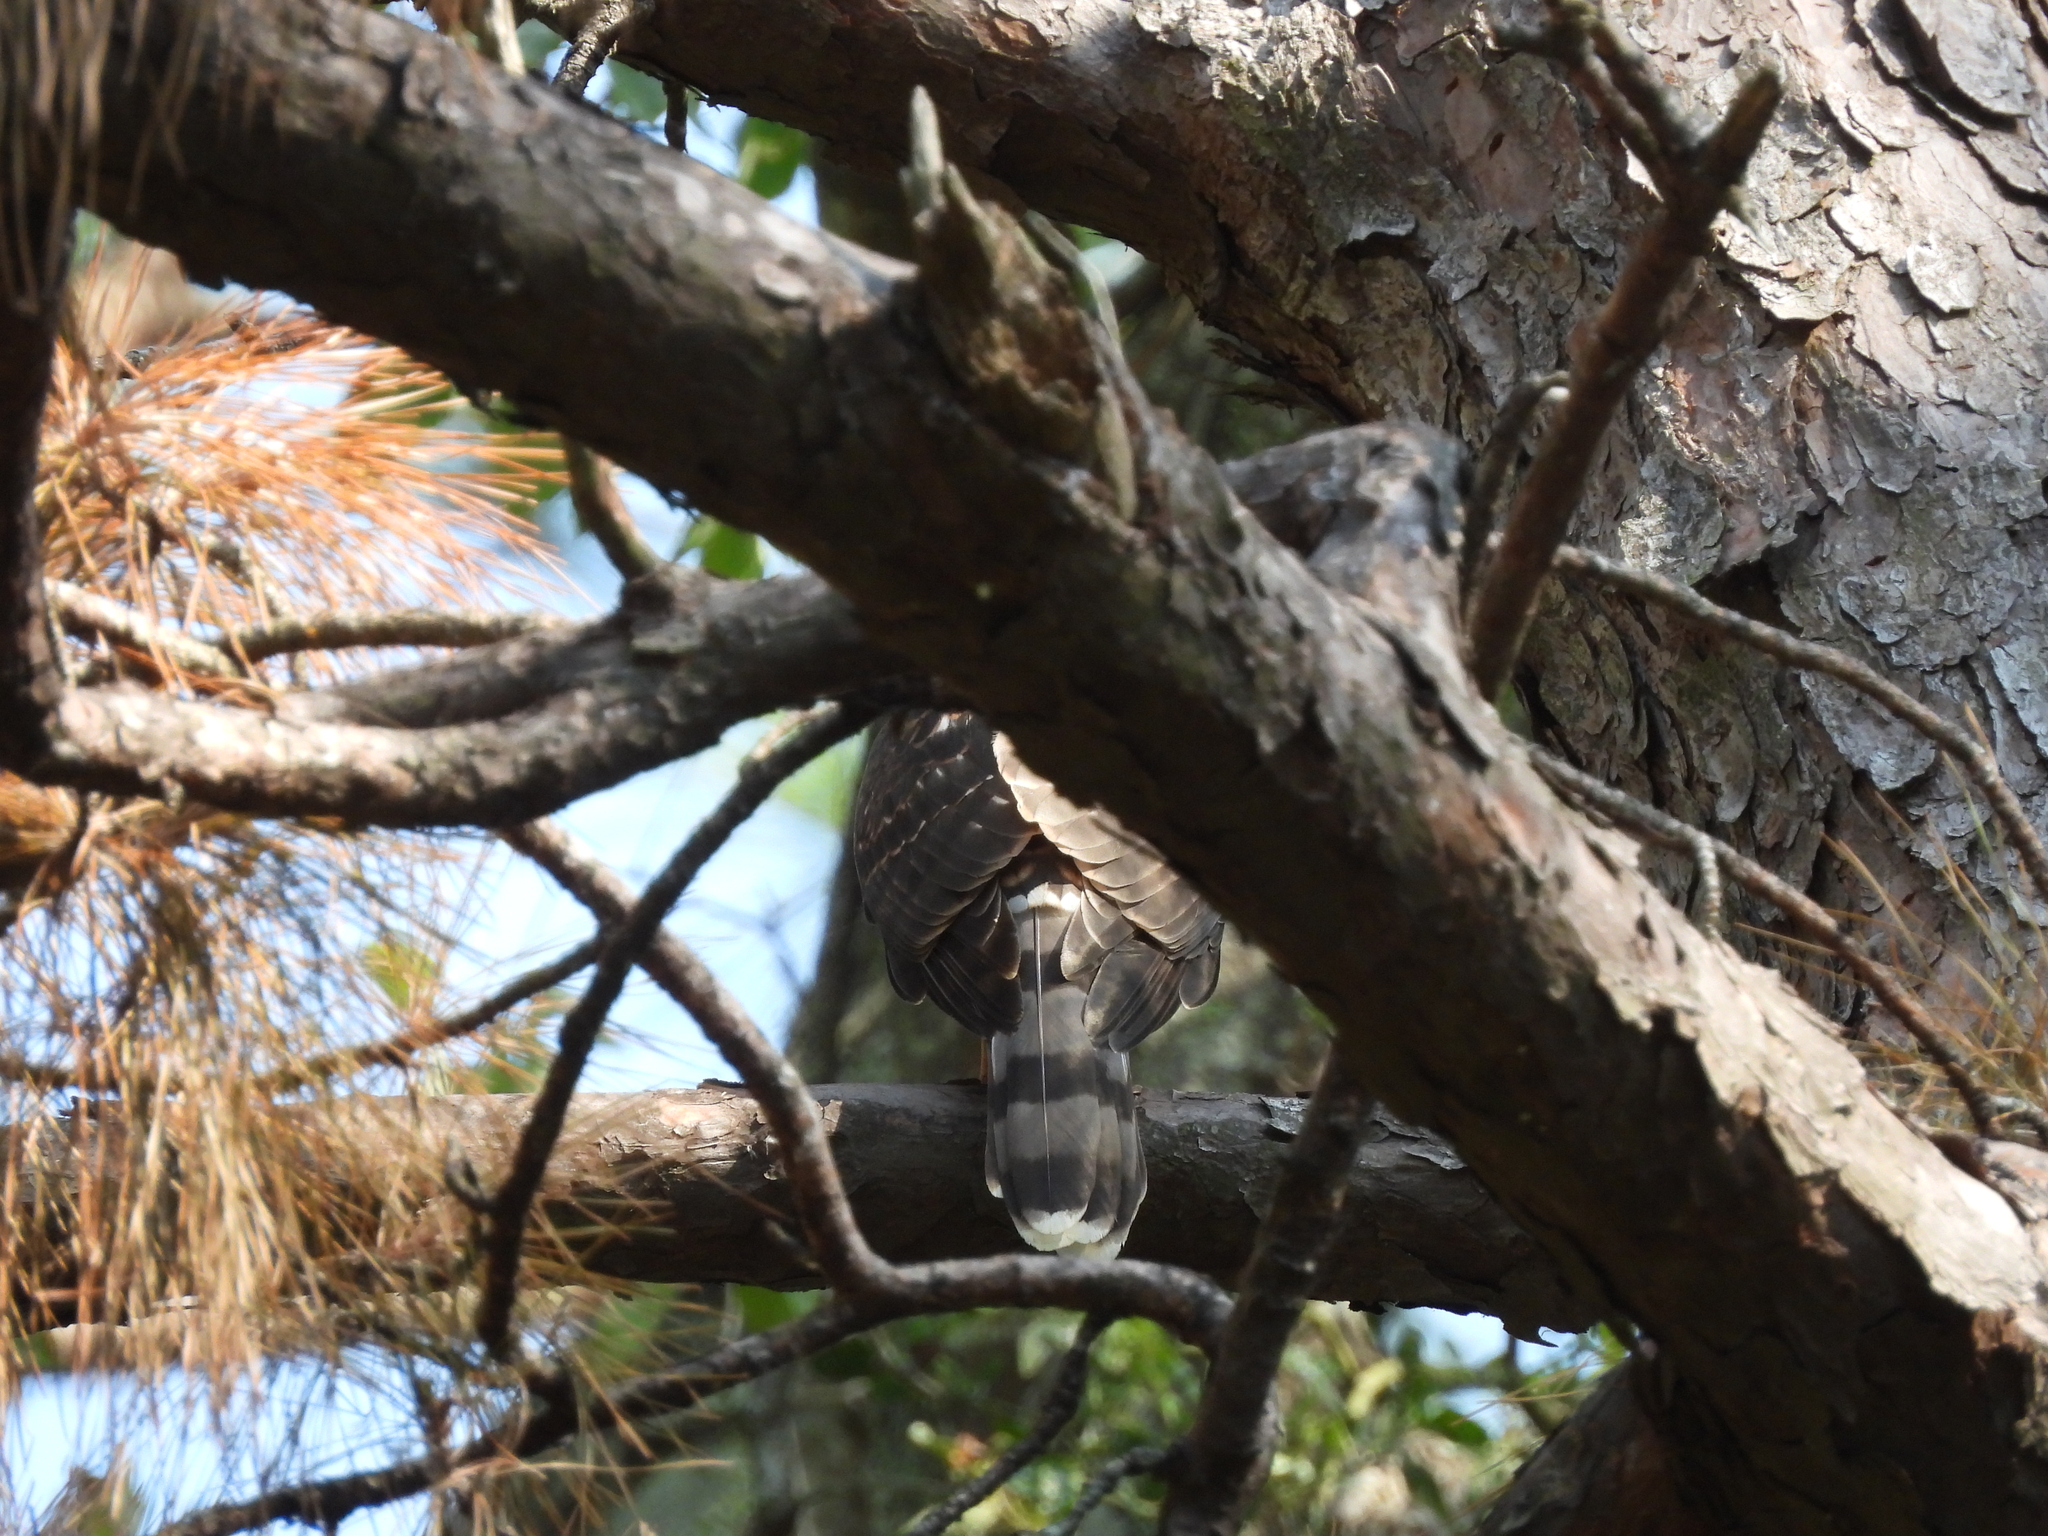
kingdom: Animalia
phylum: Chordata
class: Aves
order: Accipitriformes
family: Accipitridae
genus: Accipiter
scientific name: Accipiter cooperii
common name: Cooper's hawk
